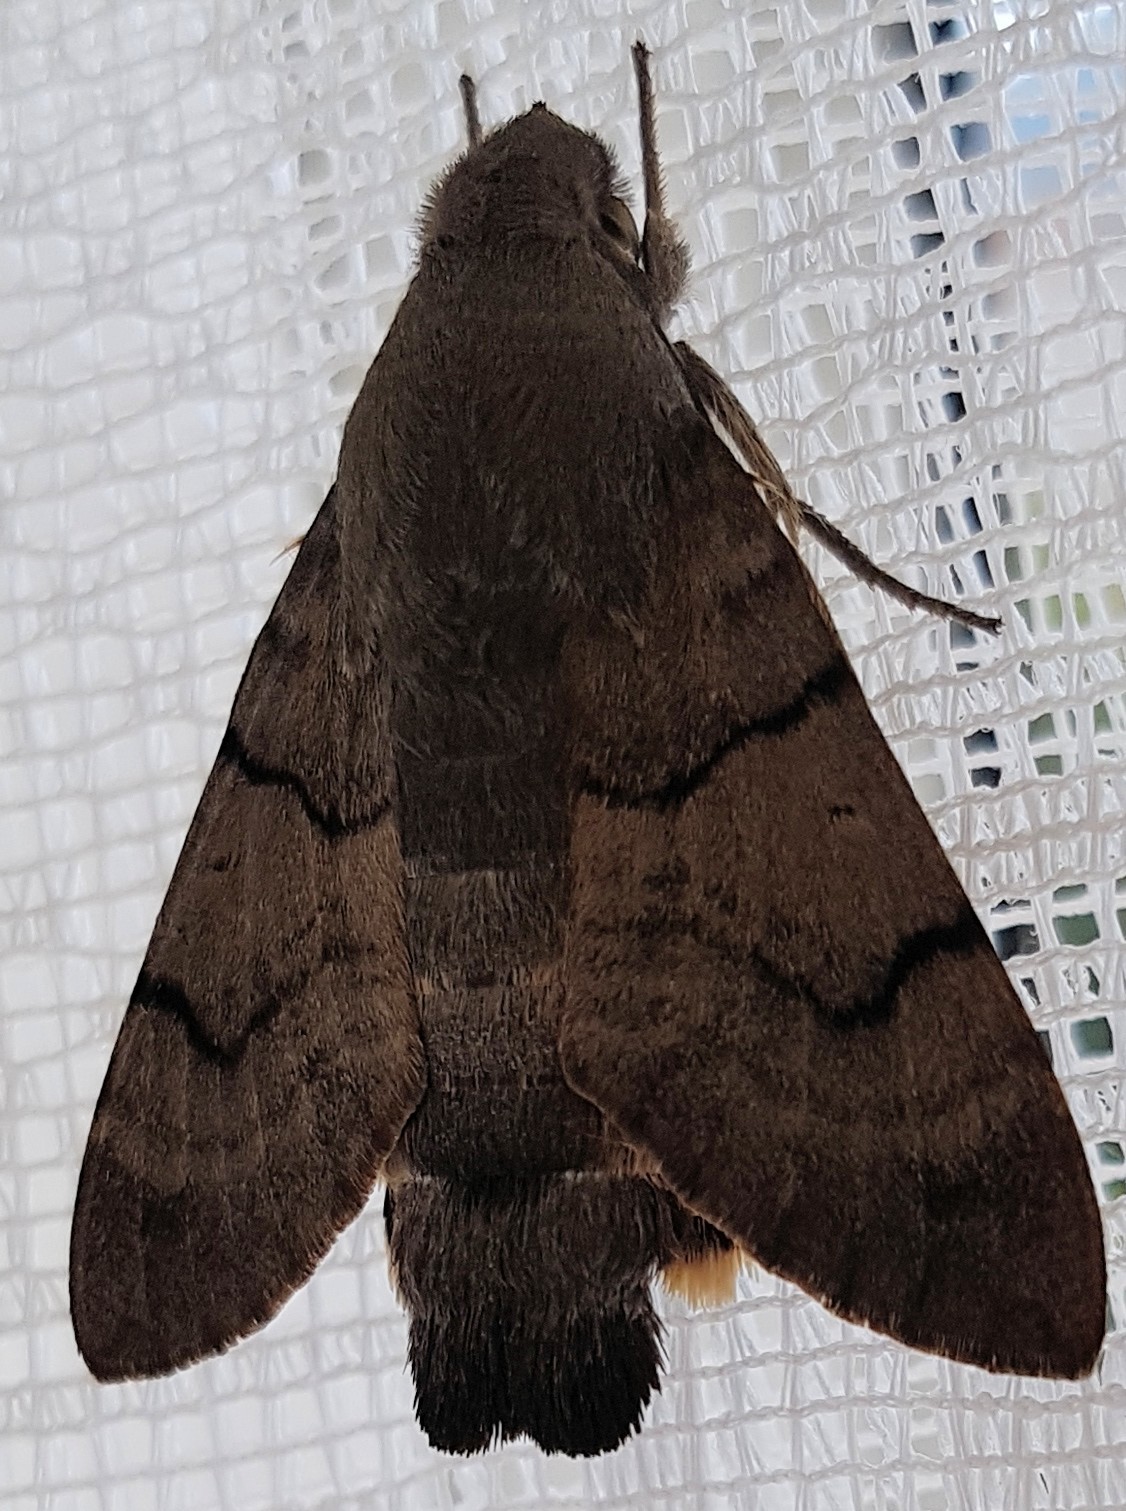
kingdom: Animalia
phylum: Arthropoda
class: Insecta
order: Lepidoptera
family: Sphingidae
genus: Macroglossum
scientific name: Macroglossum stellatarum
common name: Humming-bird hawk-moth
